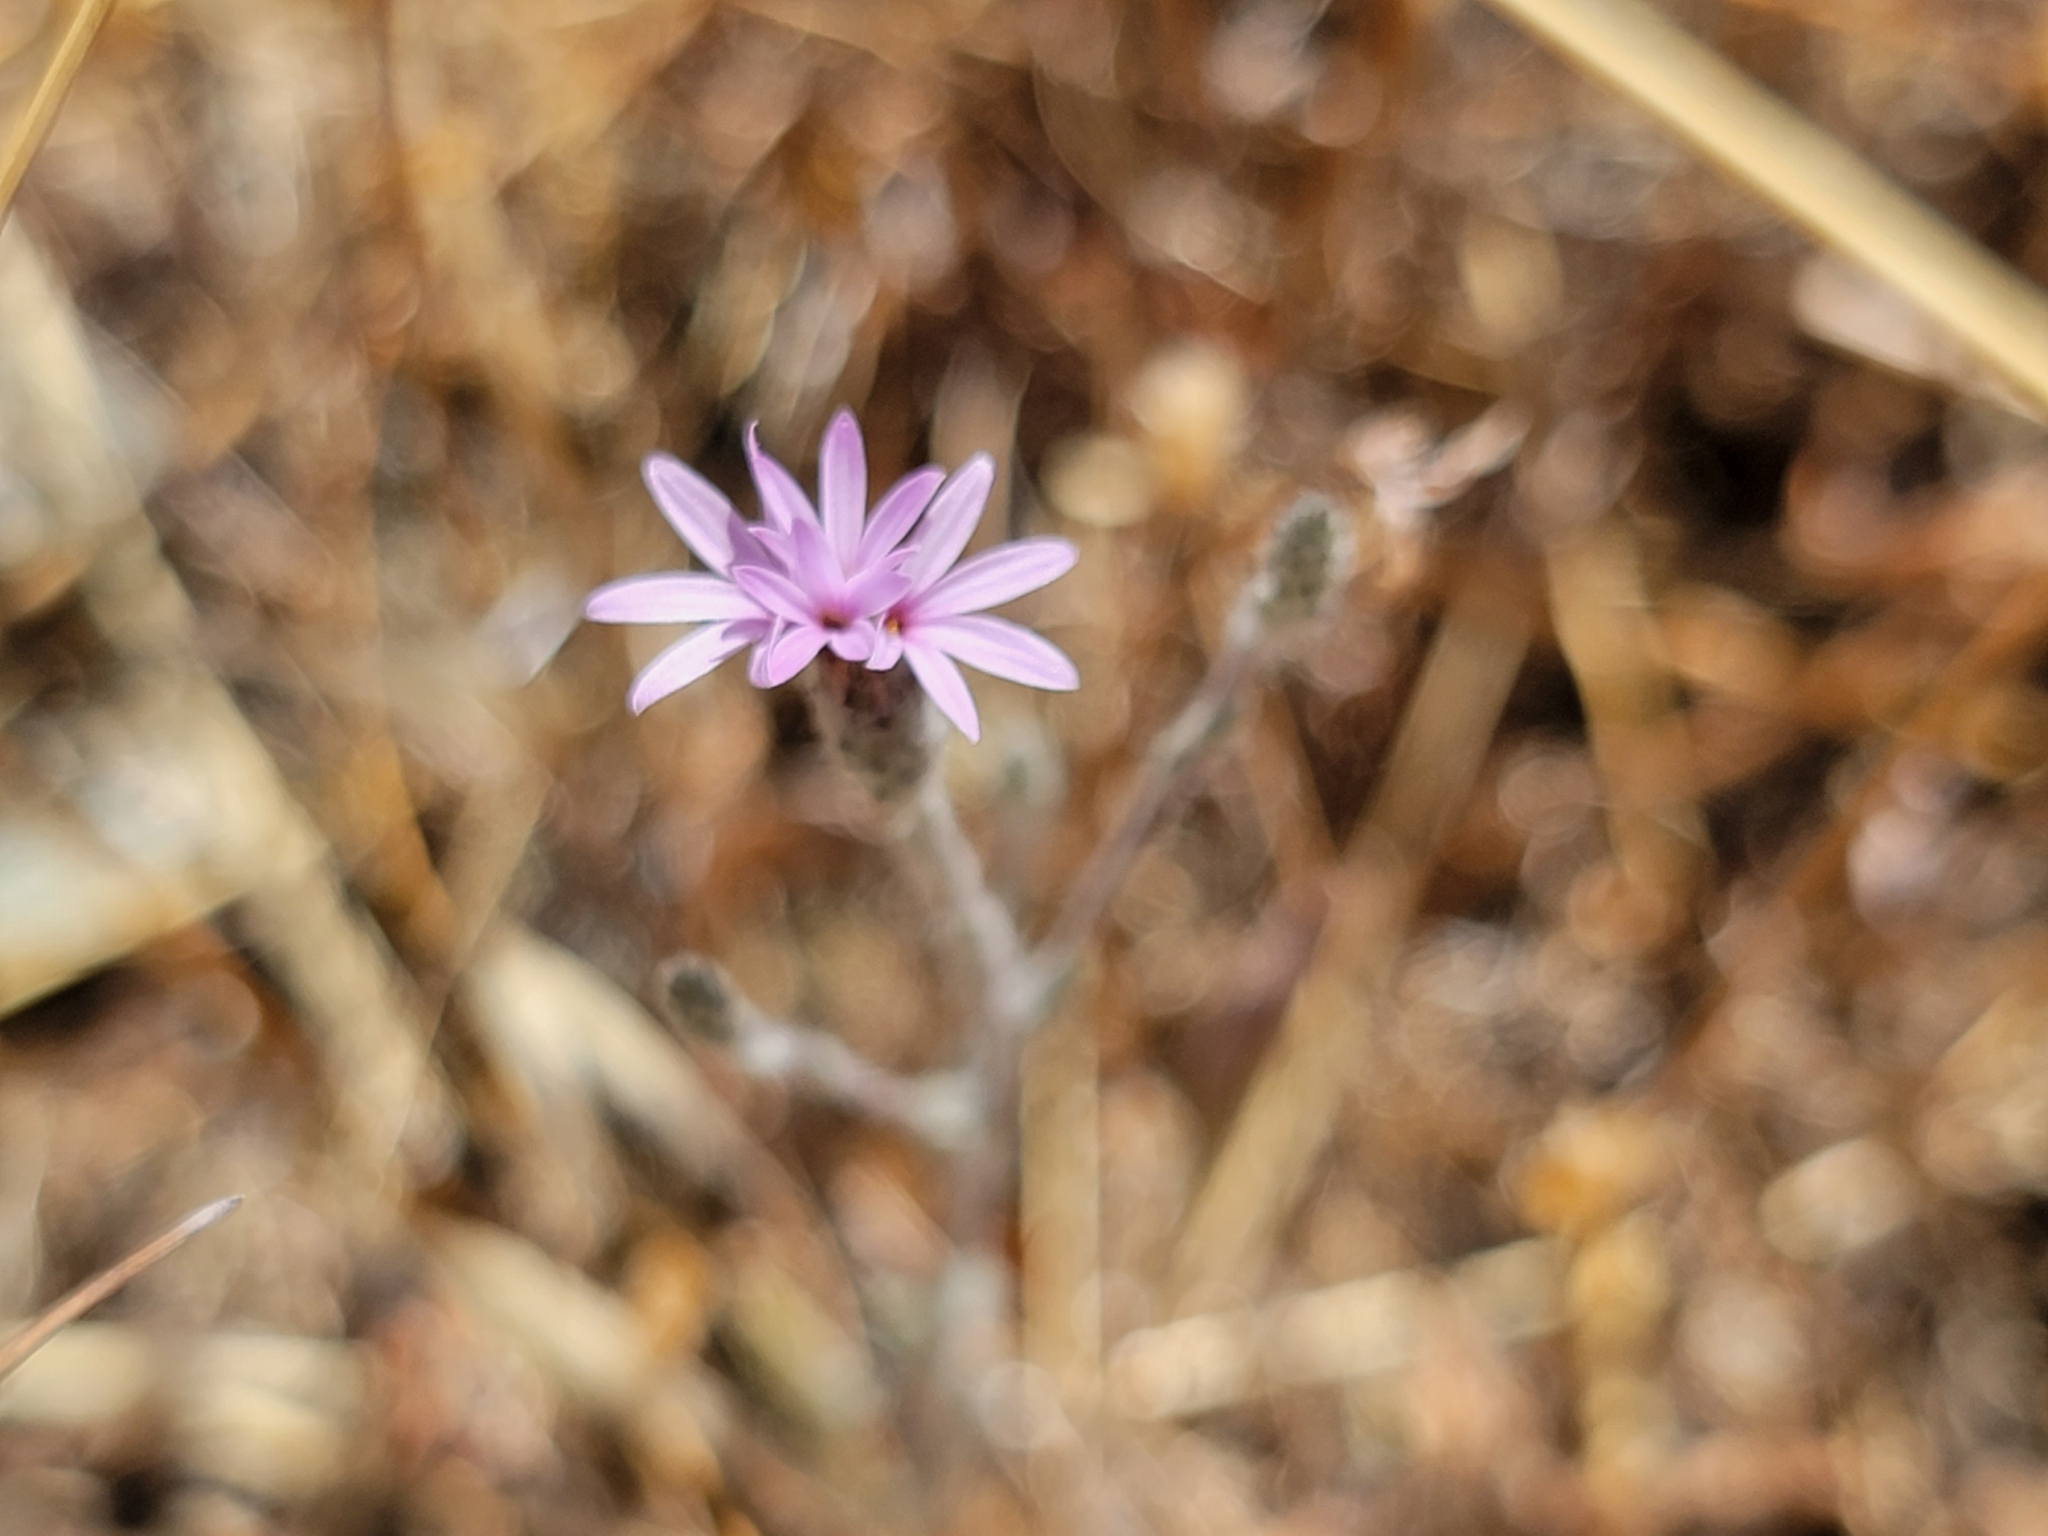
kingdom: Plantae
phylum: Tracheophyta
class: Magnoliopsida
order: Asterales
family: Asteraceae
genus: Lessingia
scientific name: Lessingia hololeuca
